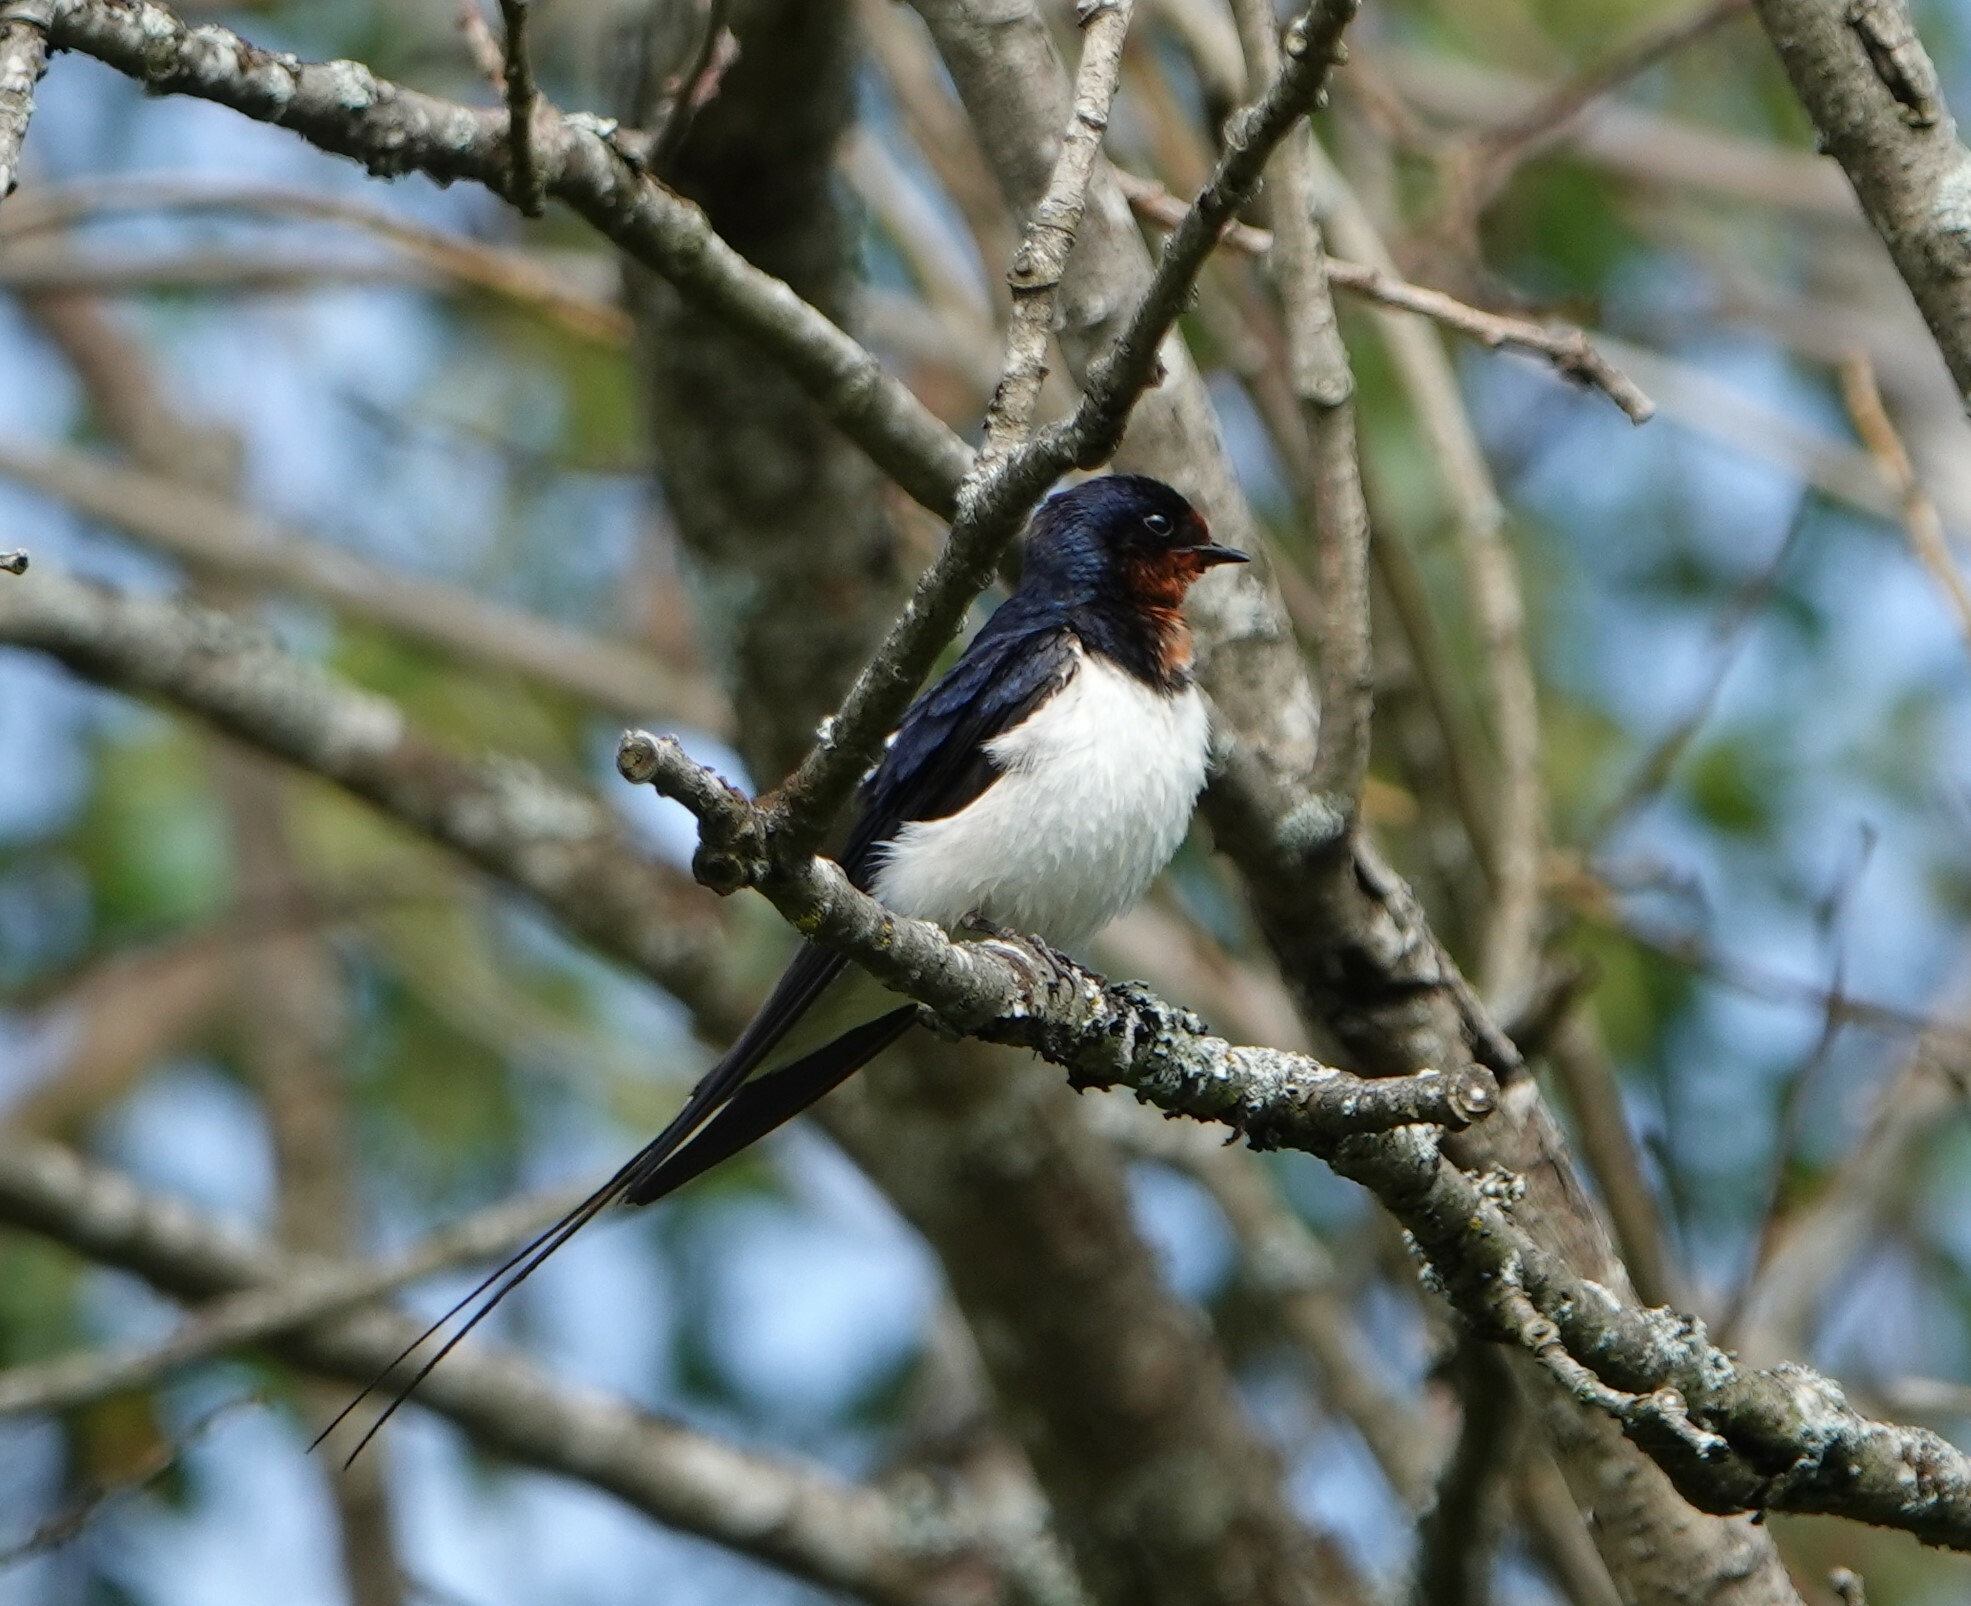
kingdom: Animalia
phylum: Chordata
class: Aves
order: Passeriformes
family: Hirundinidae
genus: Hirundo
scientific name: Hirundo rustica
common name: Barn swallow
